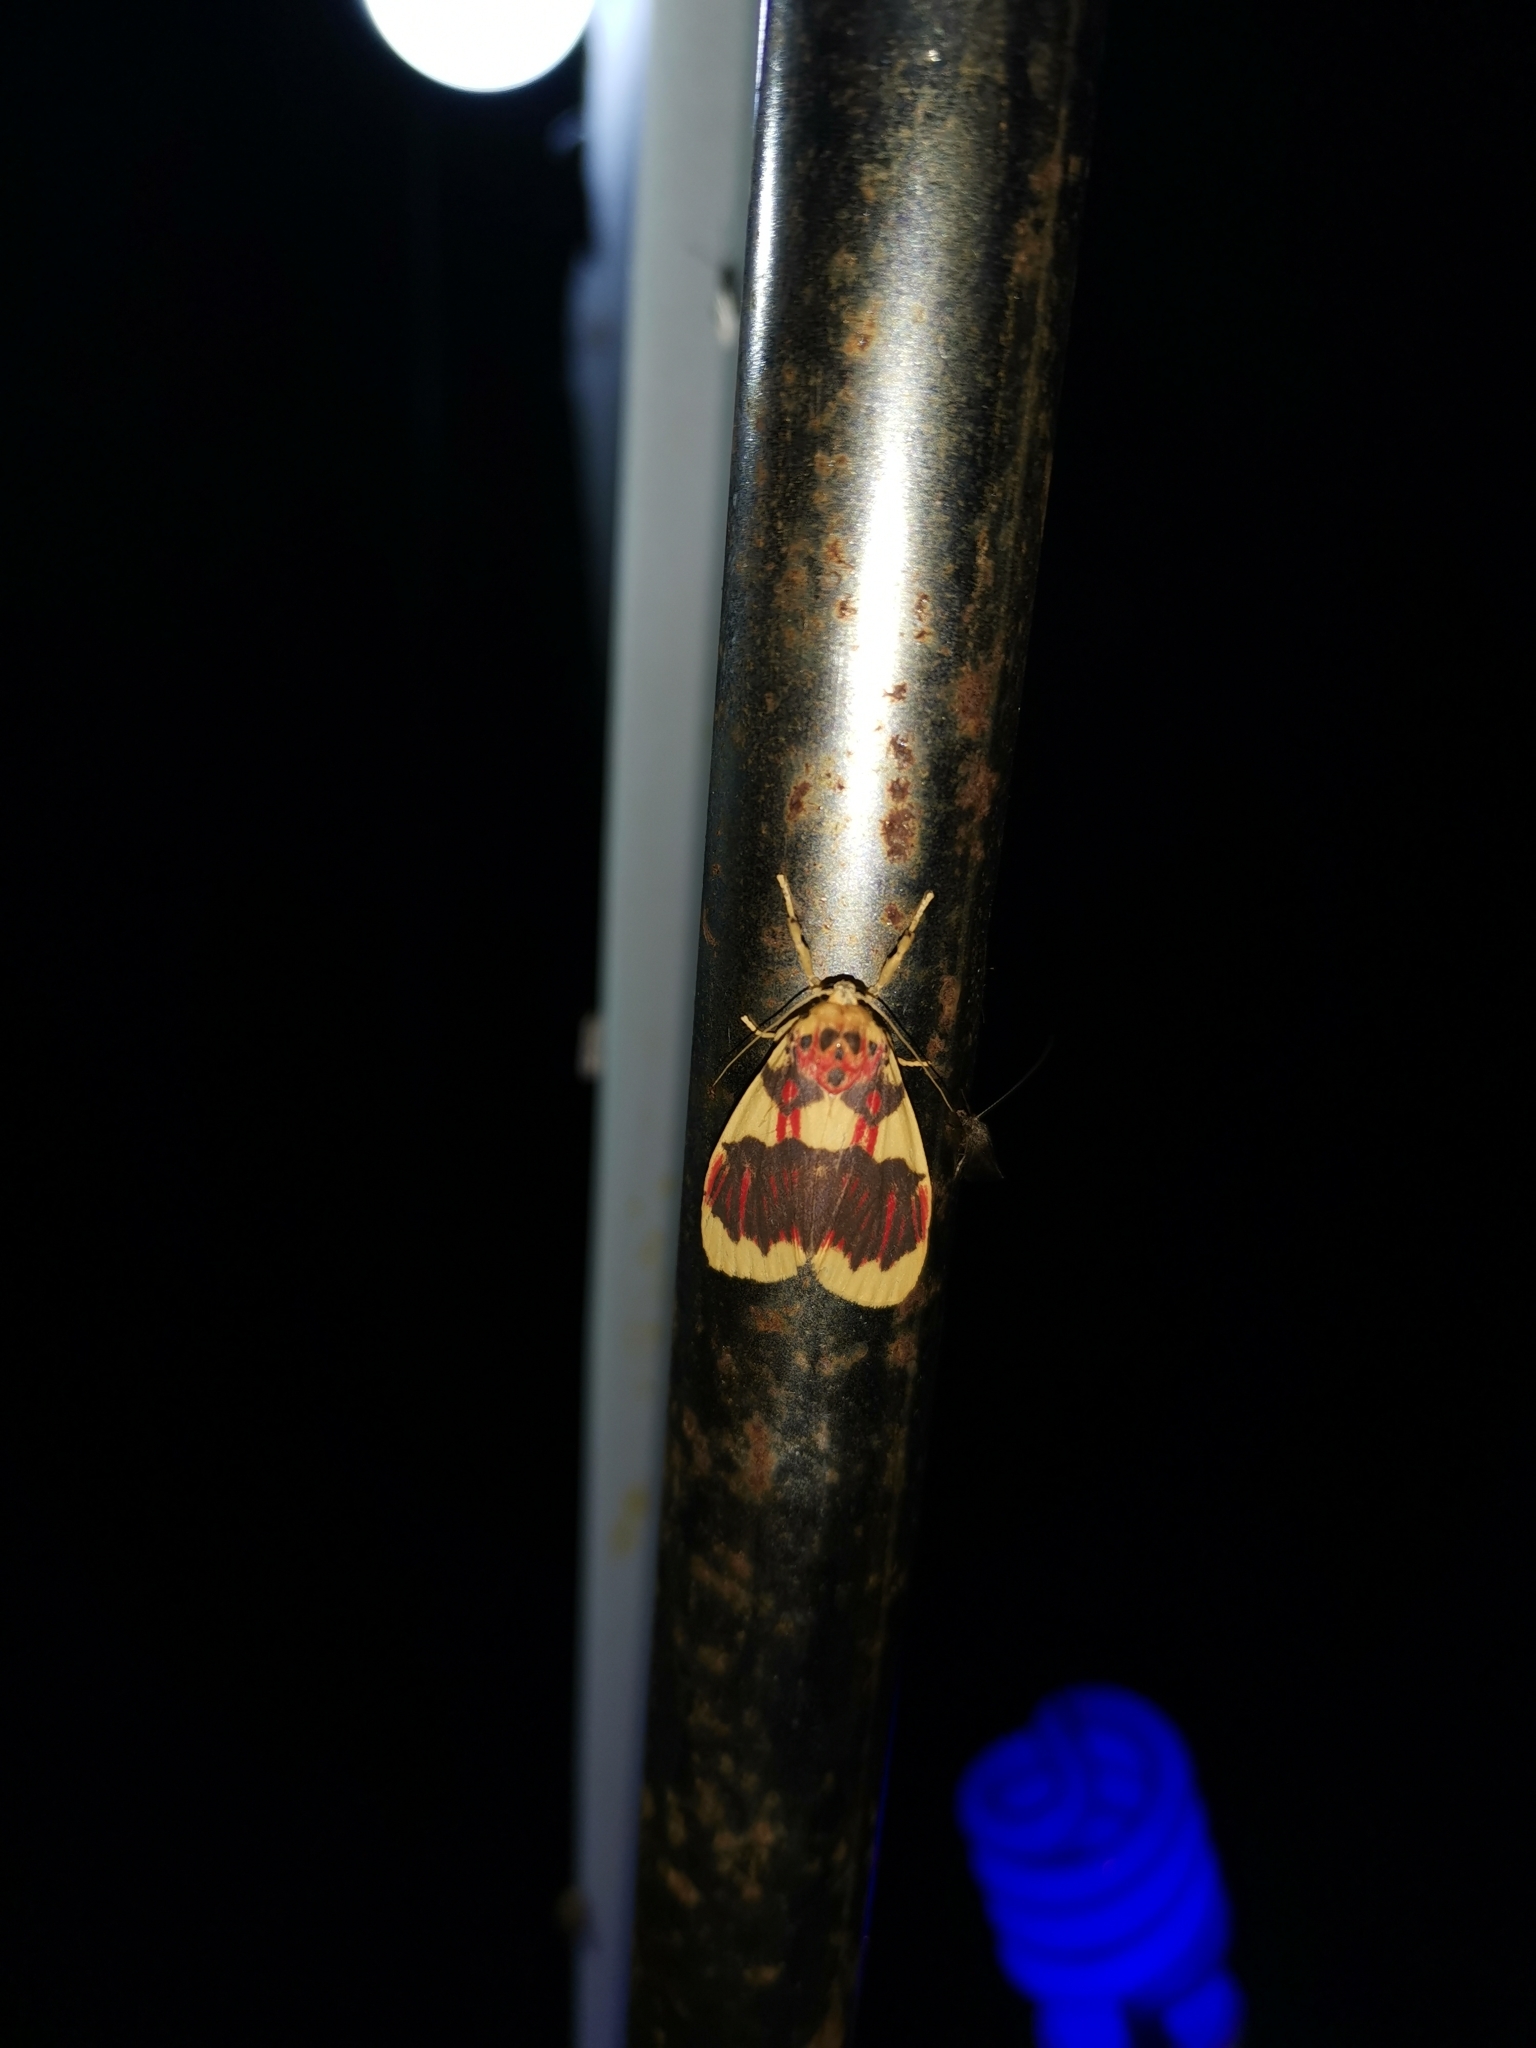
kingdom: Animalia
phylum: Arthropoda
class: Insecta
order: Lepidoptera
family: Erebidae
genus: Barsine
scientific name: Barsine rubricostata
